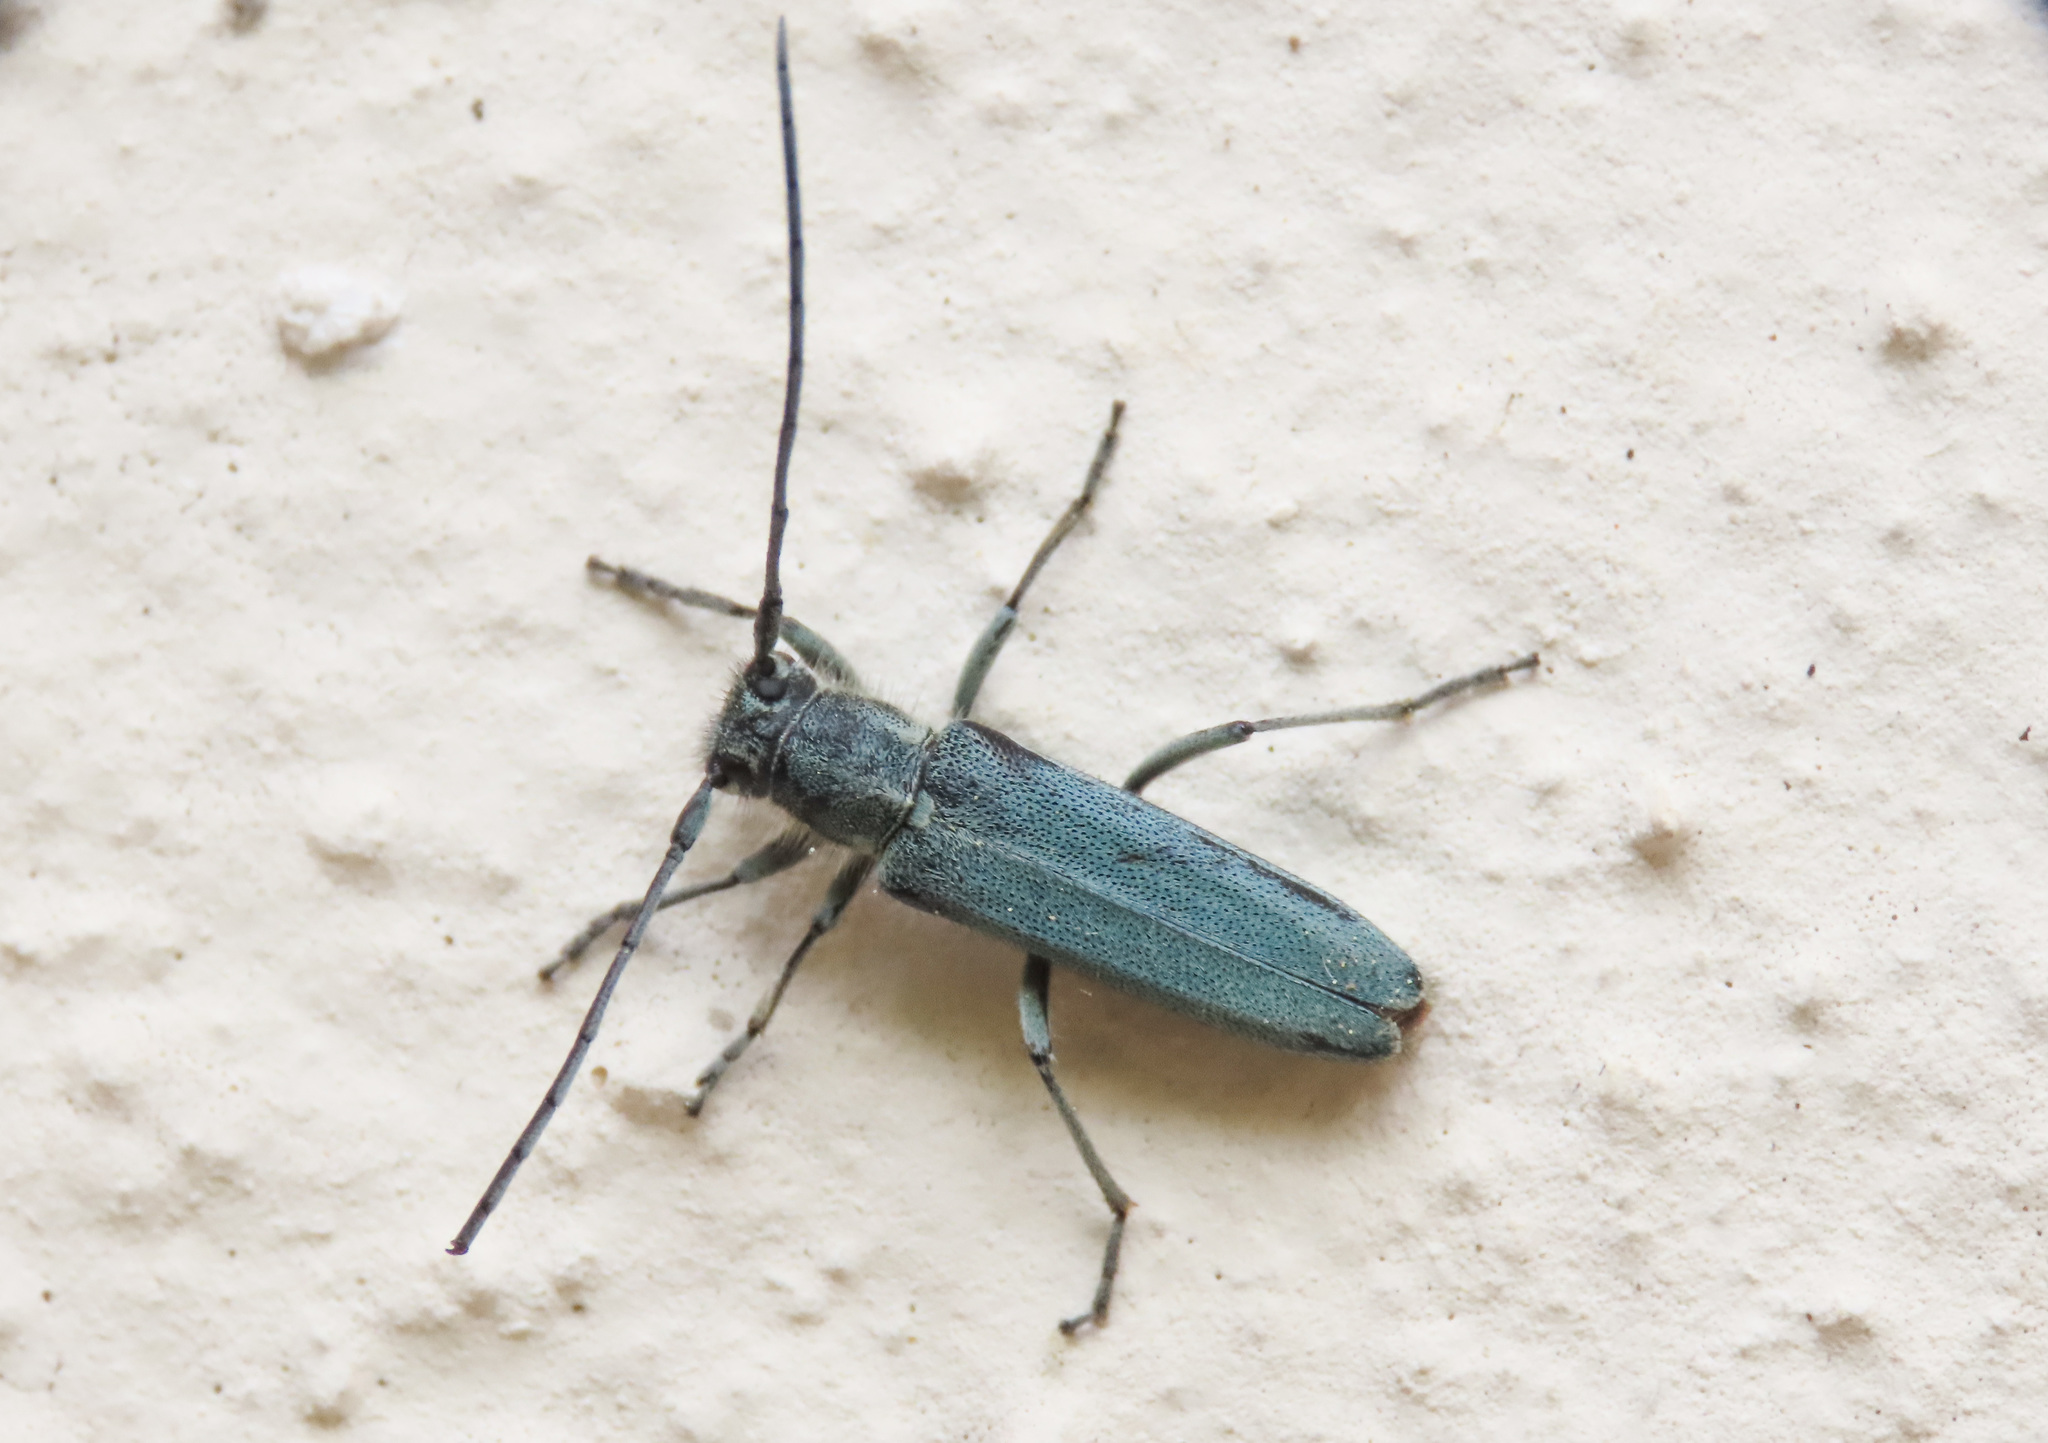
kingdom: Animalia
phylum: Arthropoda
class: Insecta
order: Coleoptera
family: Cerambycidae
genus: Phytoecia
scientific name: Phytoecia coerulescens
